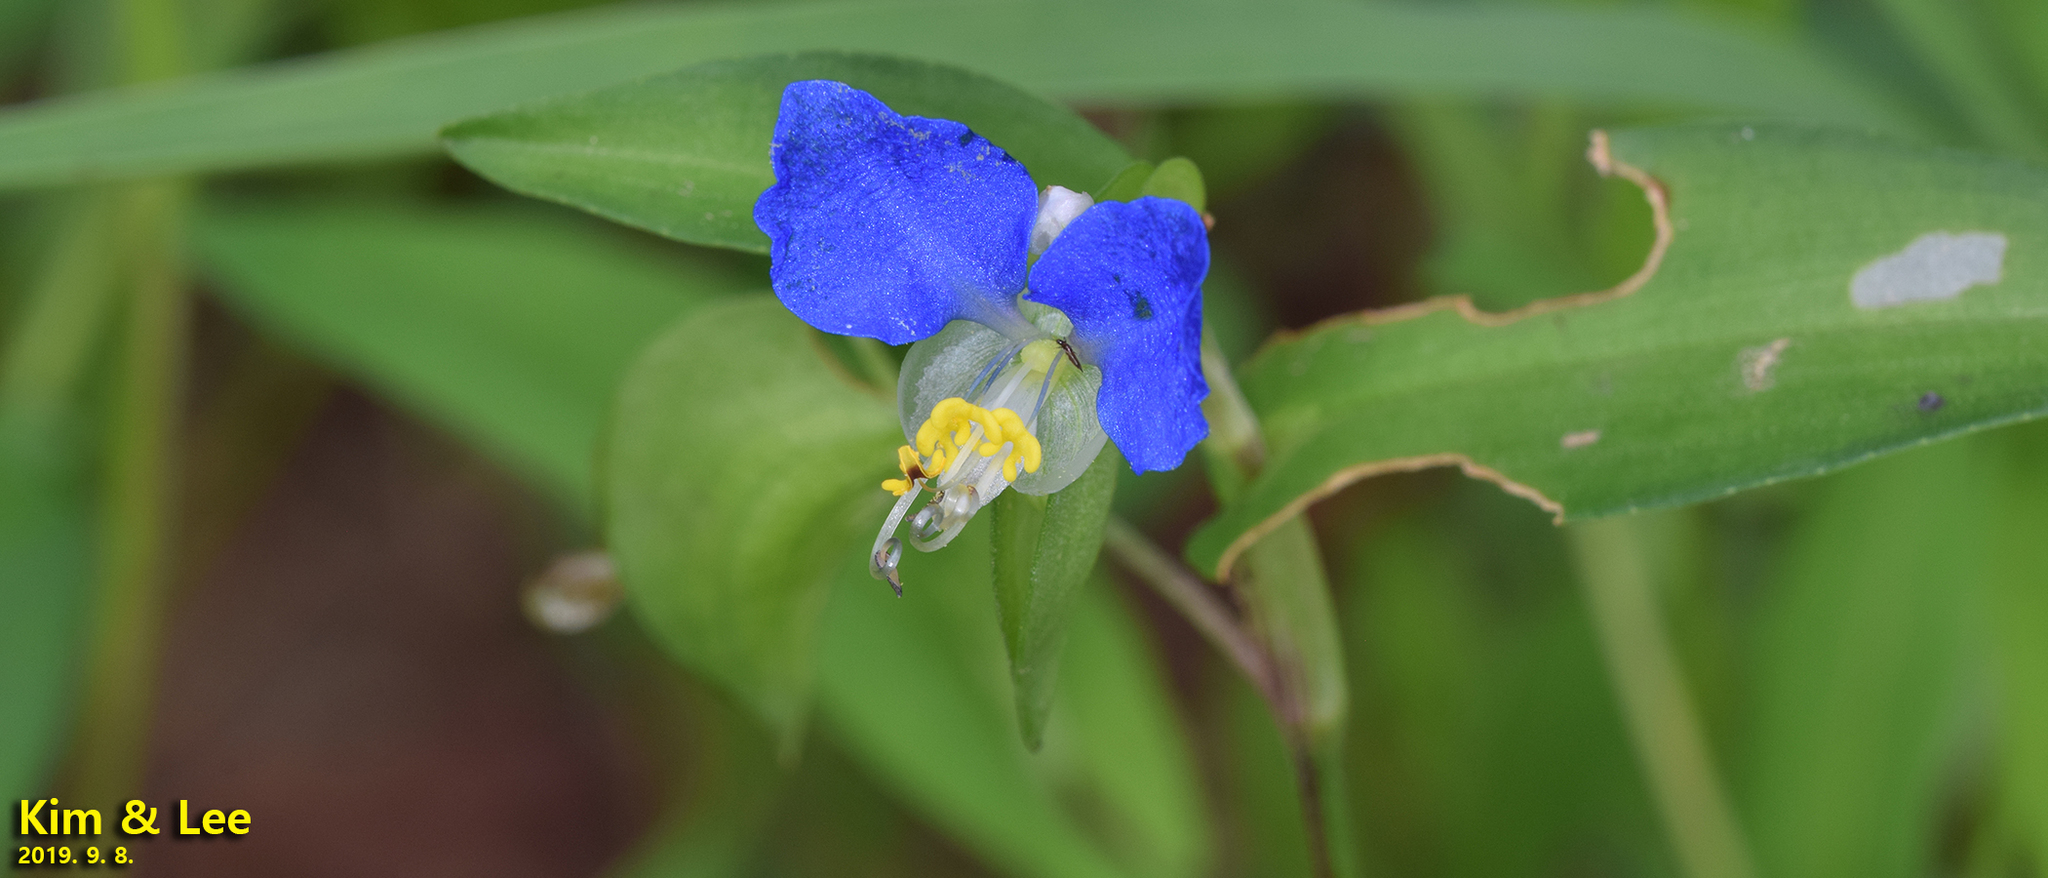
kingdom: Plantae
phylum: Tracheophyta
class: Liliopsida
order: Commelinales
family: Commelinaceae
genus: Commelina
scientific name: Commelina communis
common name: Asiatic dayflower
